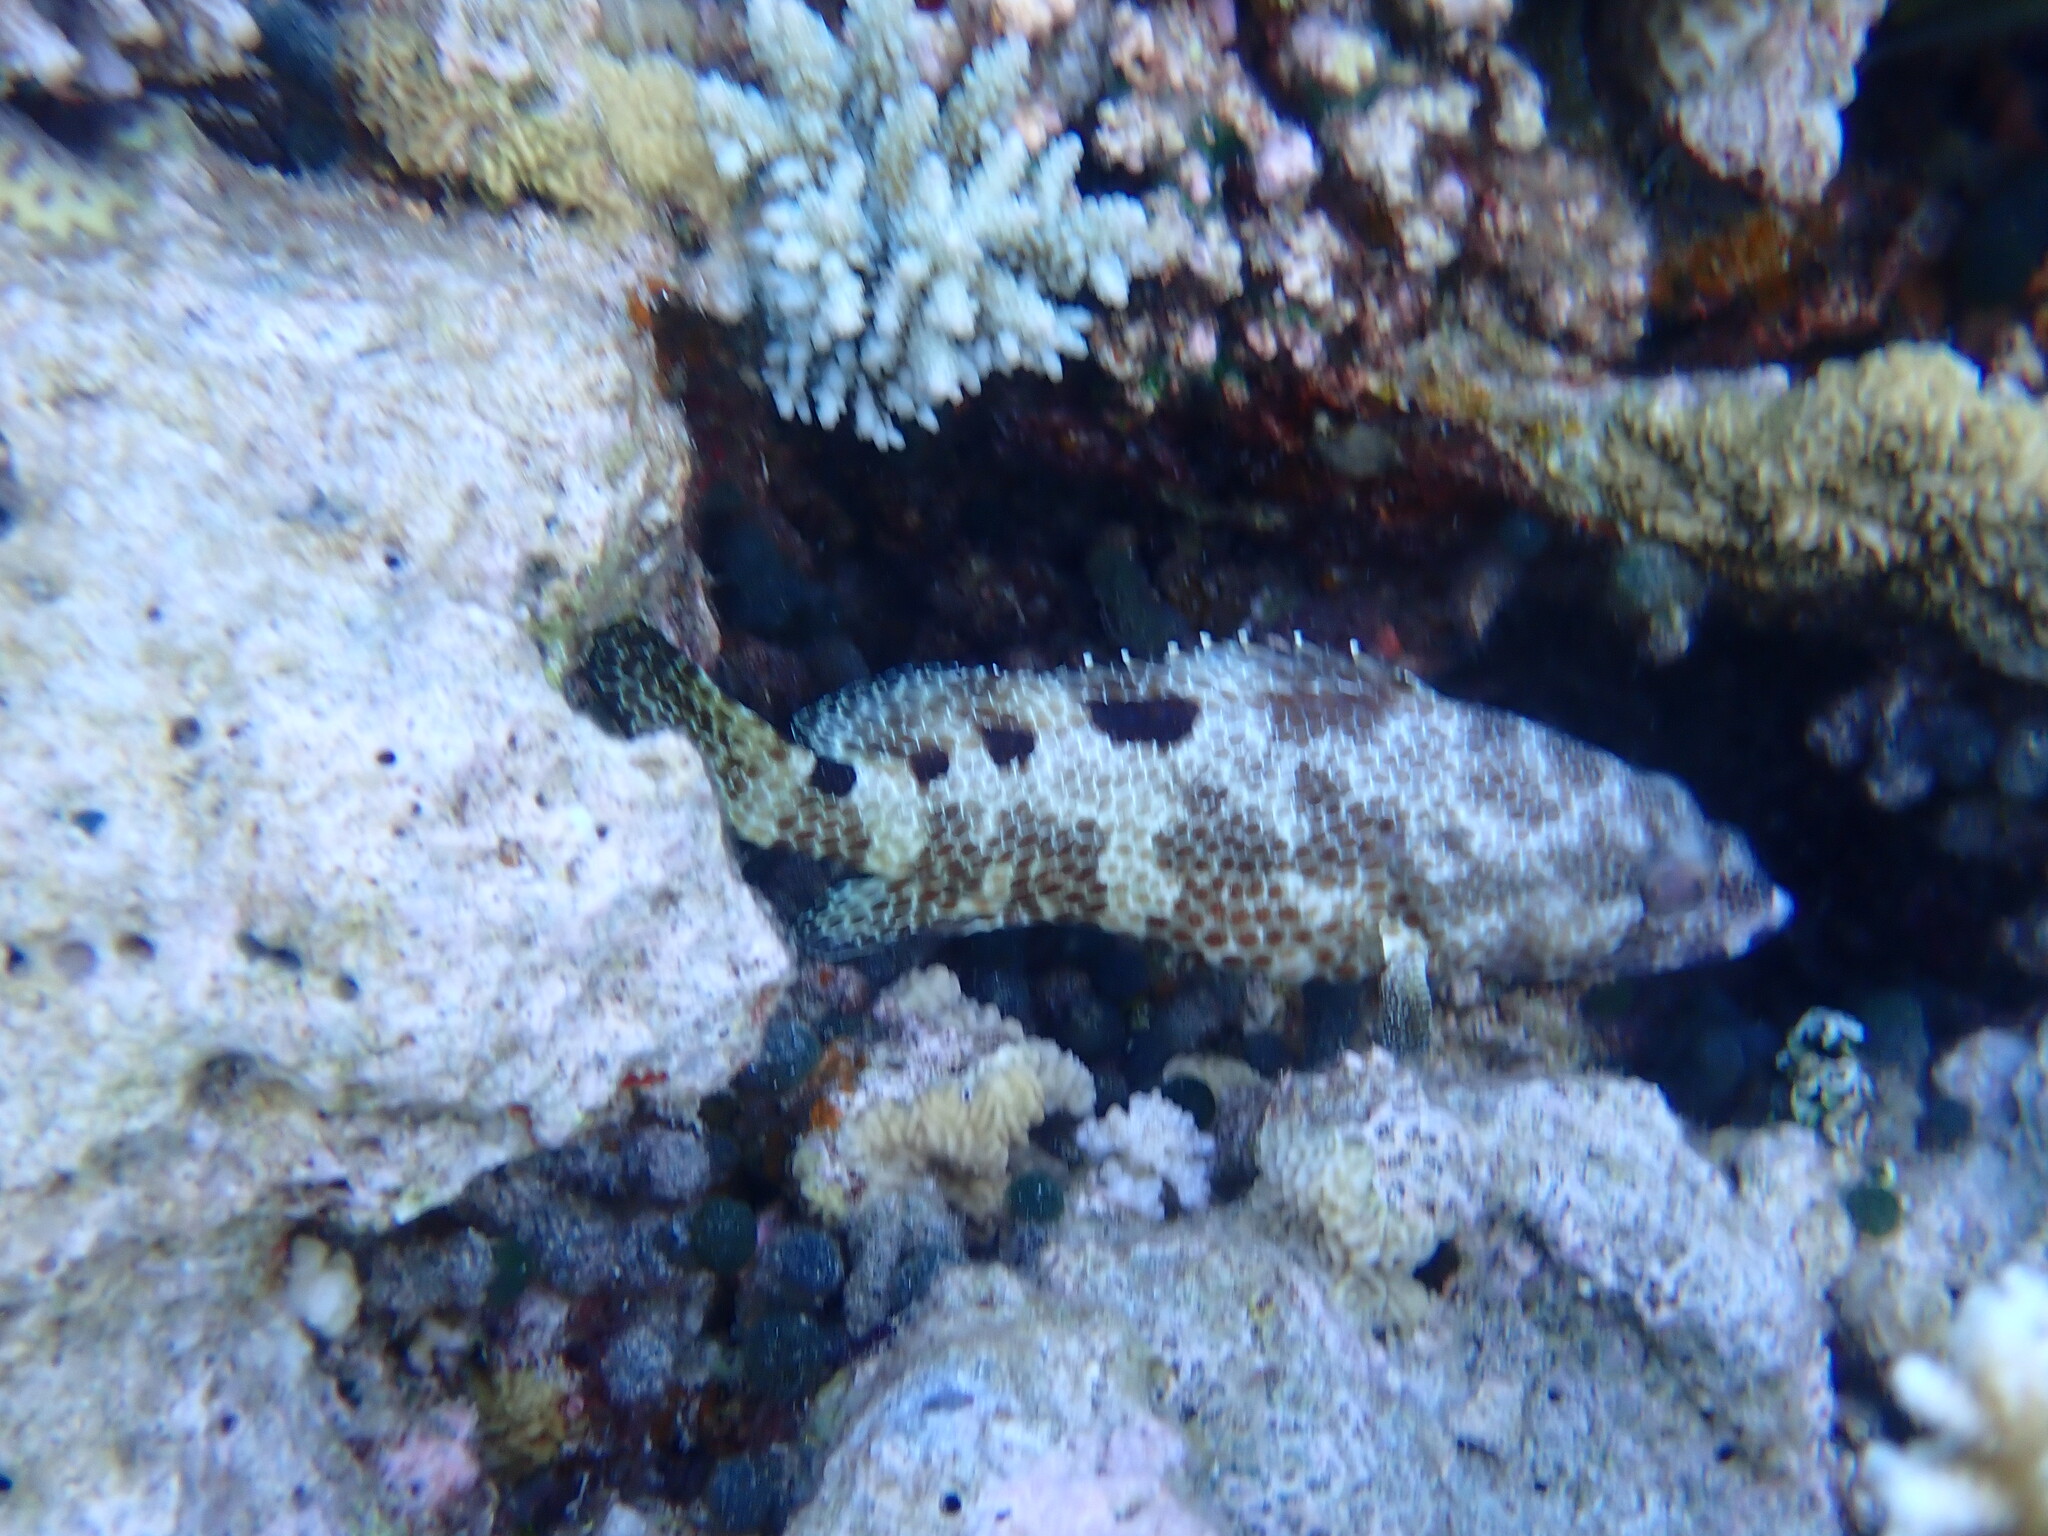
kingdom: Animalia
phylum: Chordata
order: Perciformes
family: Serranidae
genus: Epinephelus
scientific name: Epinephelus spilotoceps
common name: Foursaddle grouper
